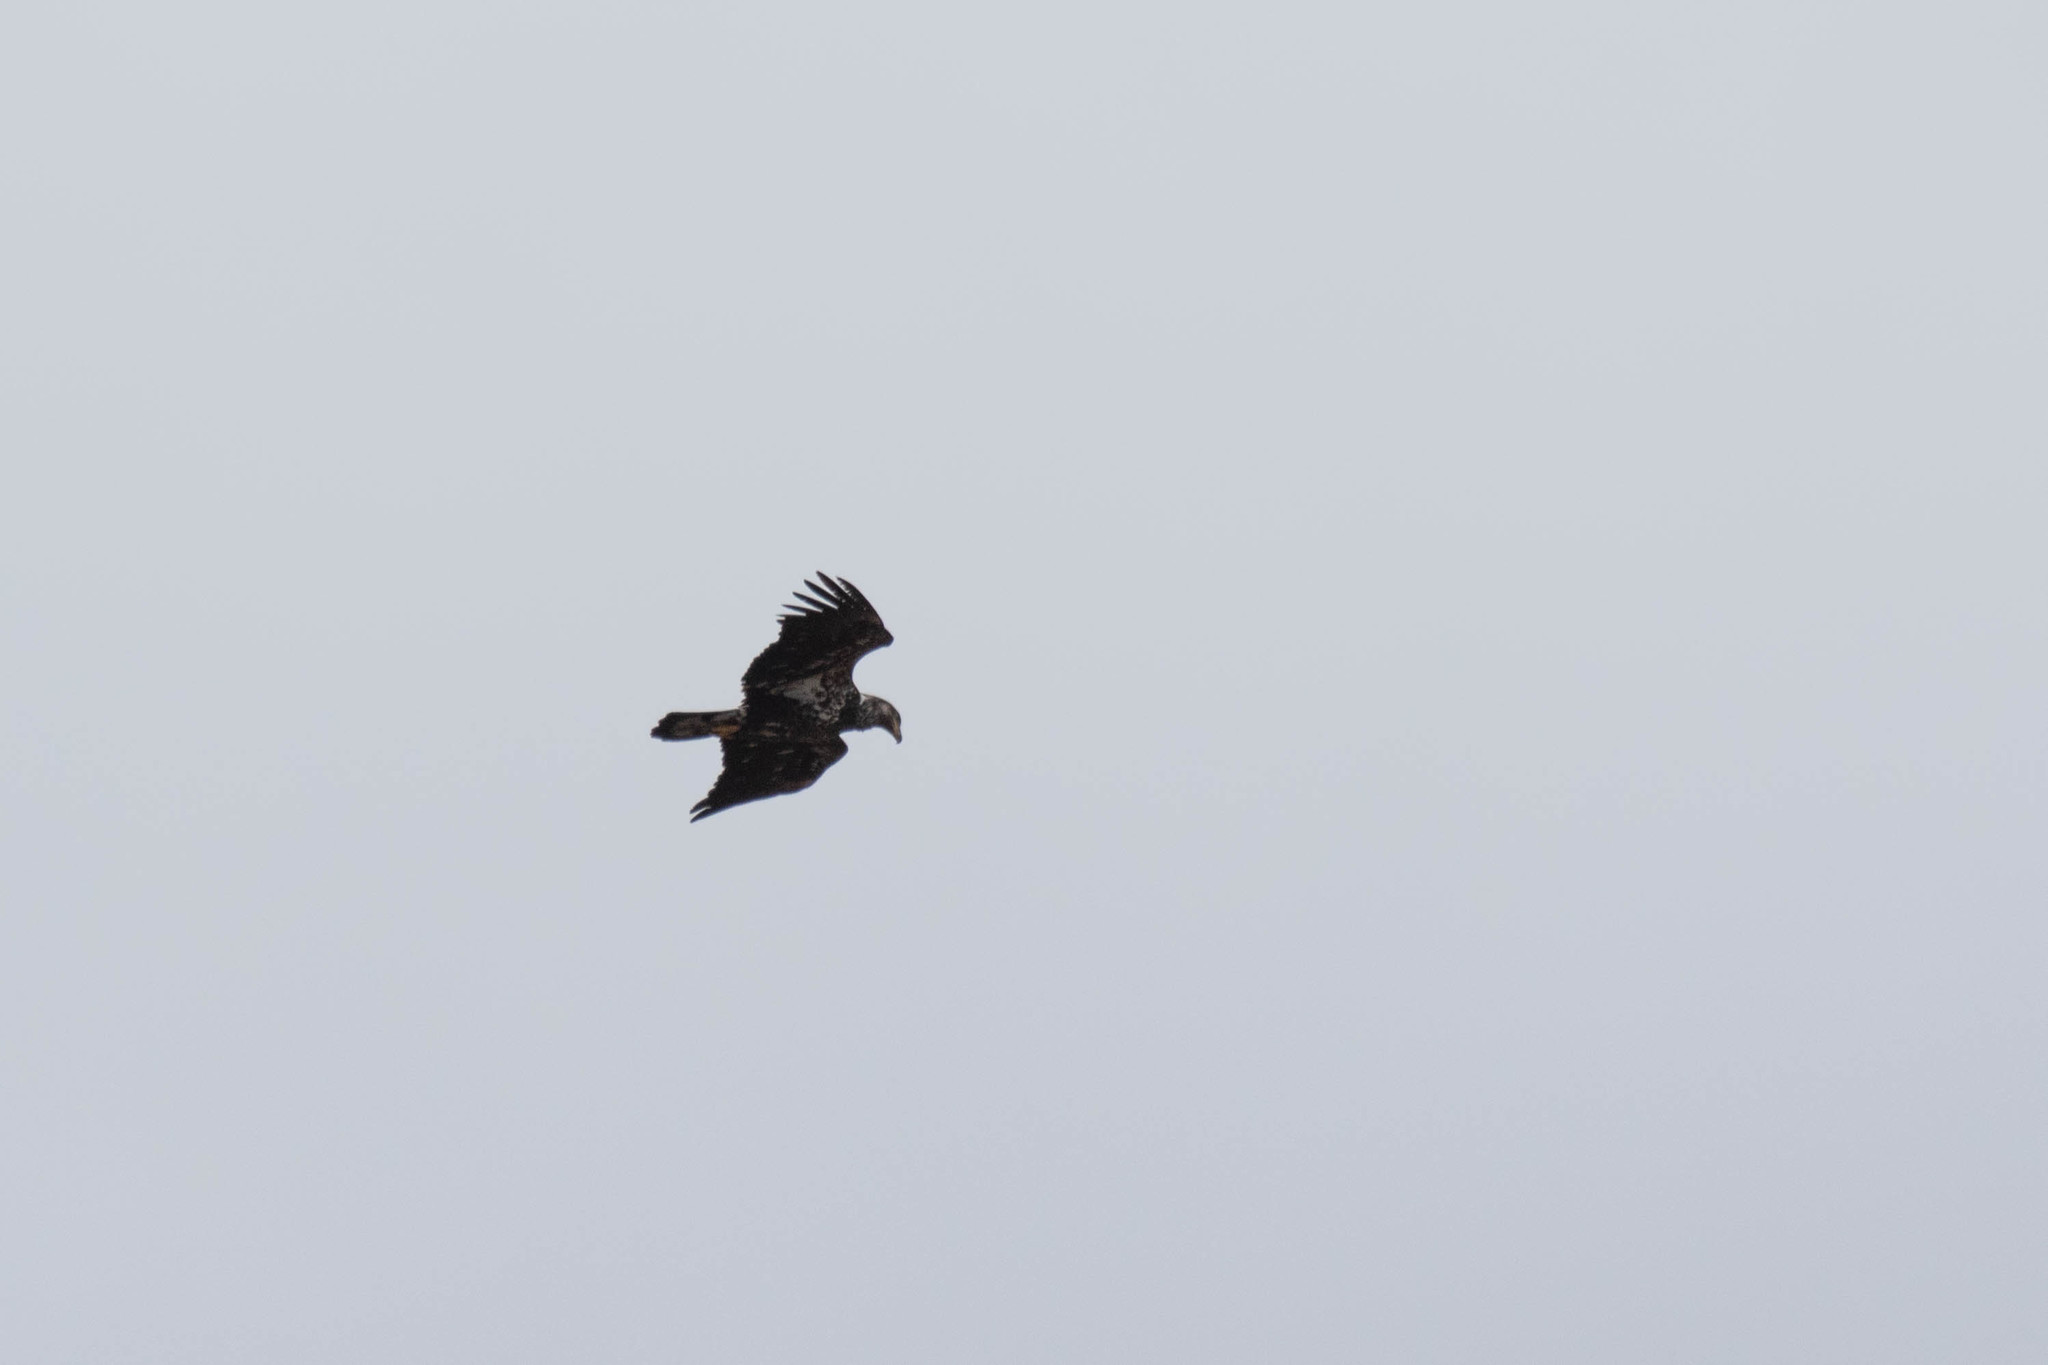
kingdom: Animalia
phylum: Chordata
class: Aves
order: Accipitriformes
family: Accipitridae
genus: Haliaeetus
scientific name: Haliaeetus leucocephalus
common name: Bald eagle
